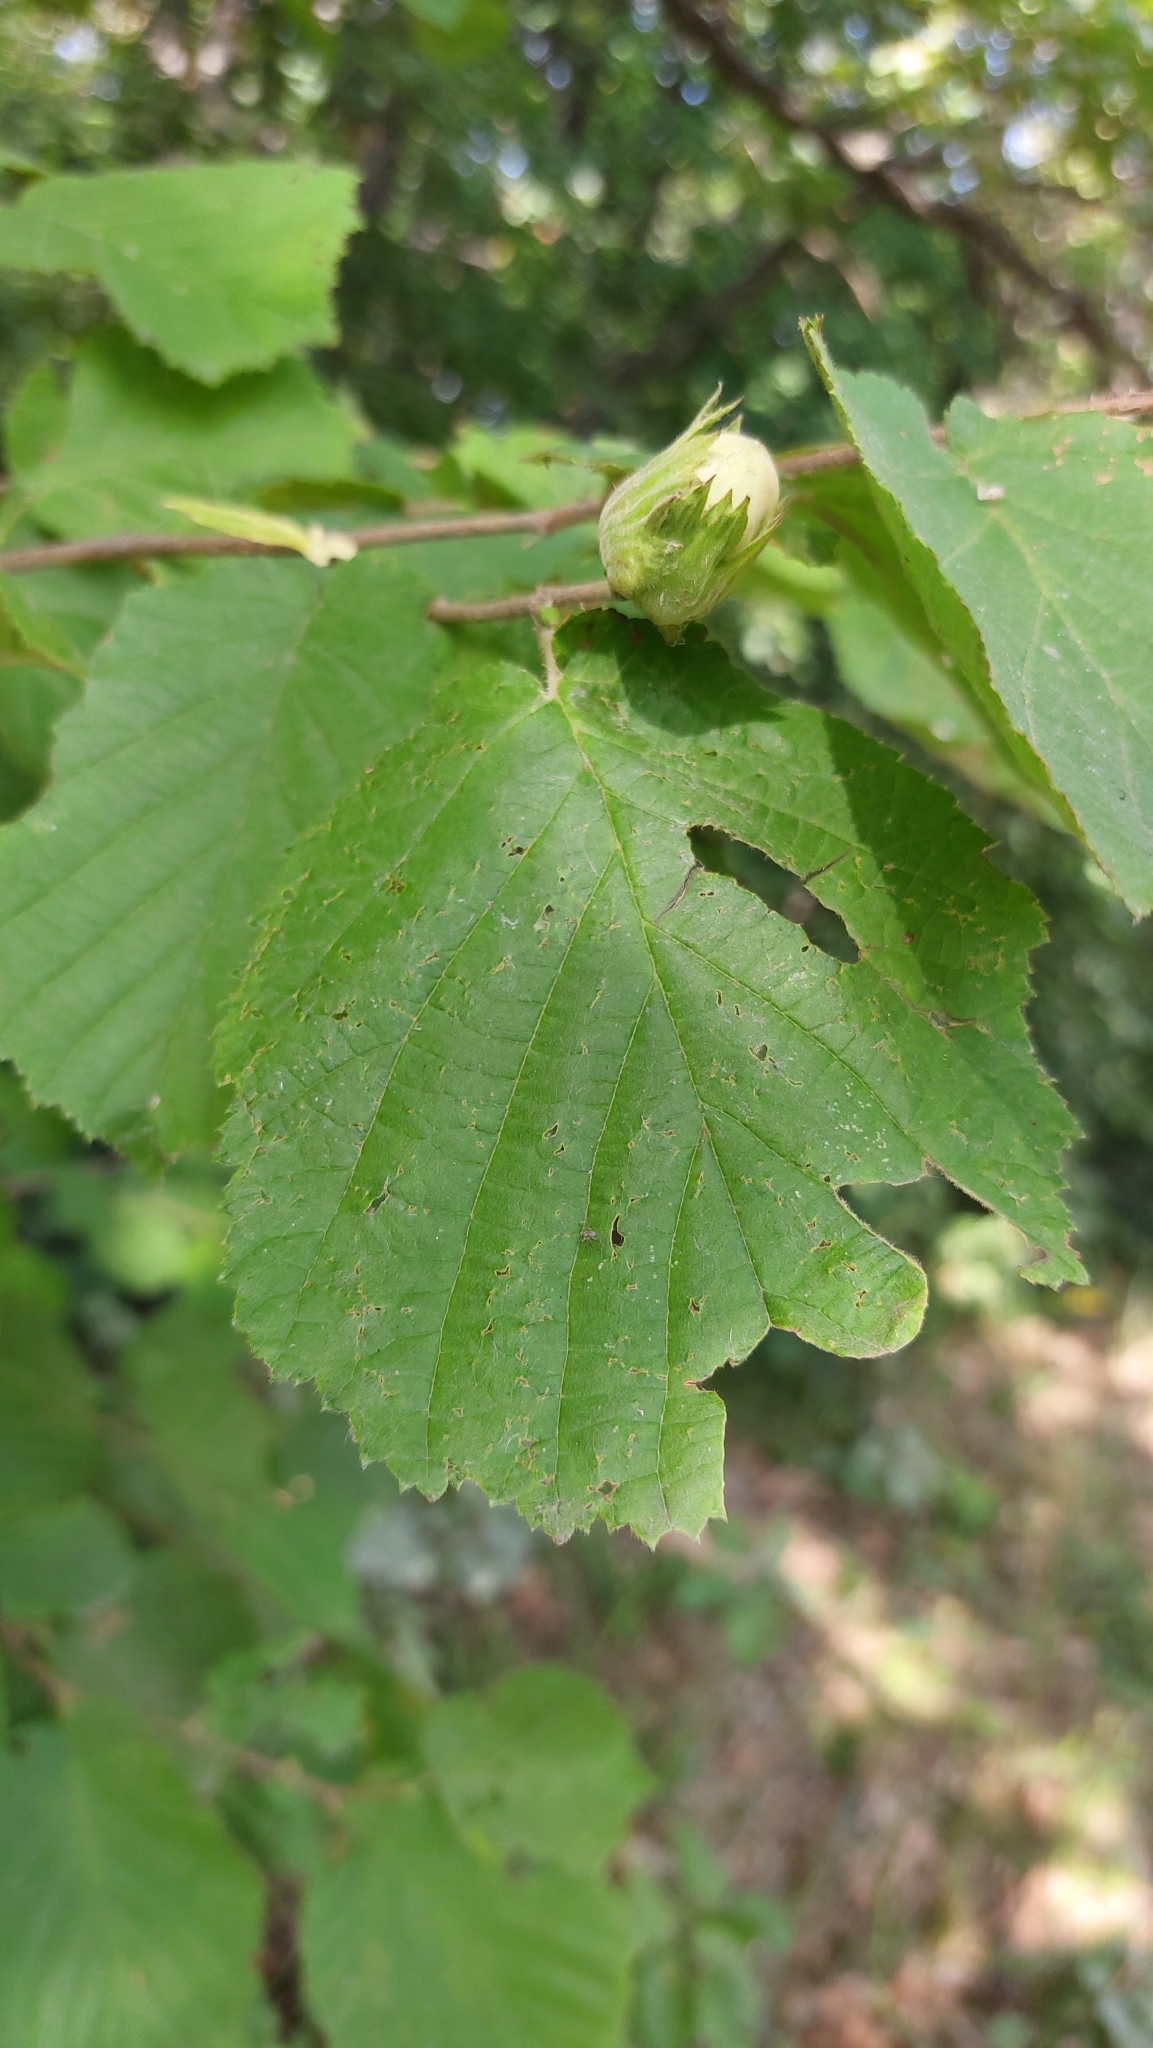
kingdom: Plantae
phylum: Tracheophyta
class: Magnoliopsida
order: Fagales
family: Betulaceae
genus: Corylus
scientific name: Corylus avellana
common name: European hazel
